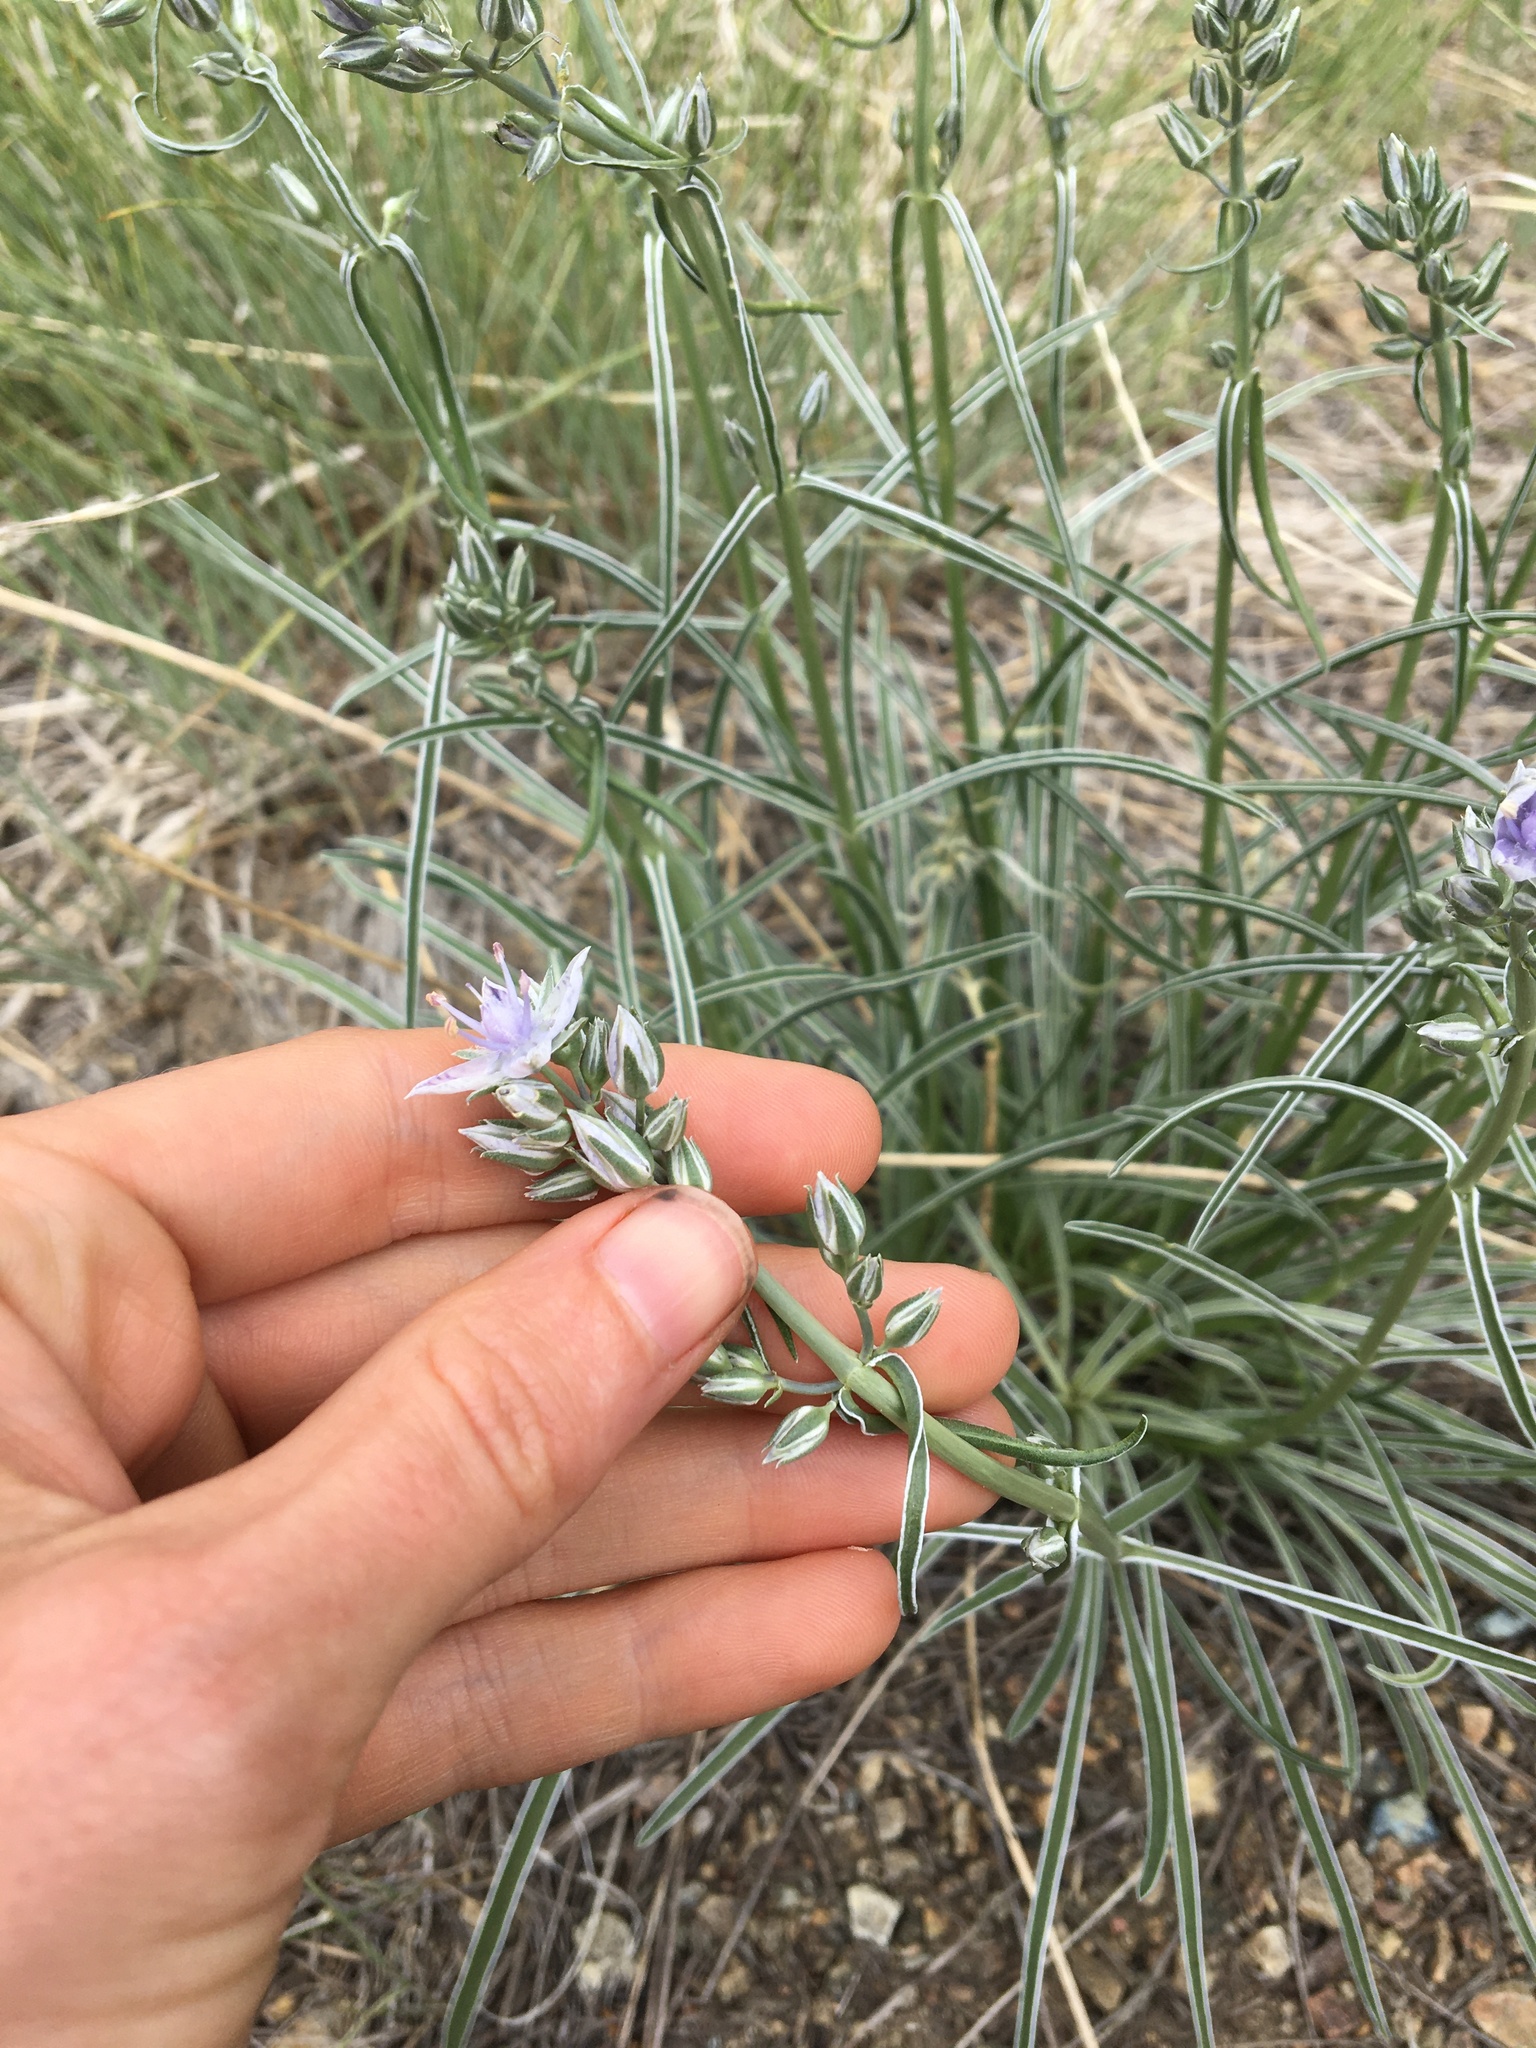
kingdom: Plantae
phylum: Tracheophyta
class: Magnoliopsida
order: Gentianales
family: Gentianaceae
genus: Frasera
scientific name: Frasera albicaulis
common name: Cusick's frasera
